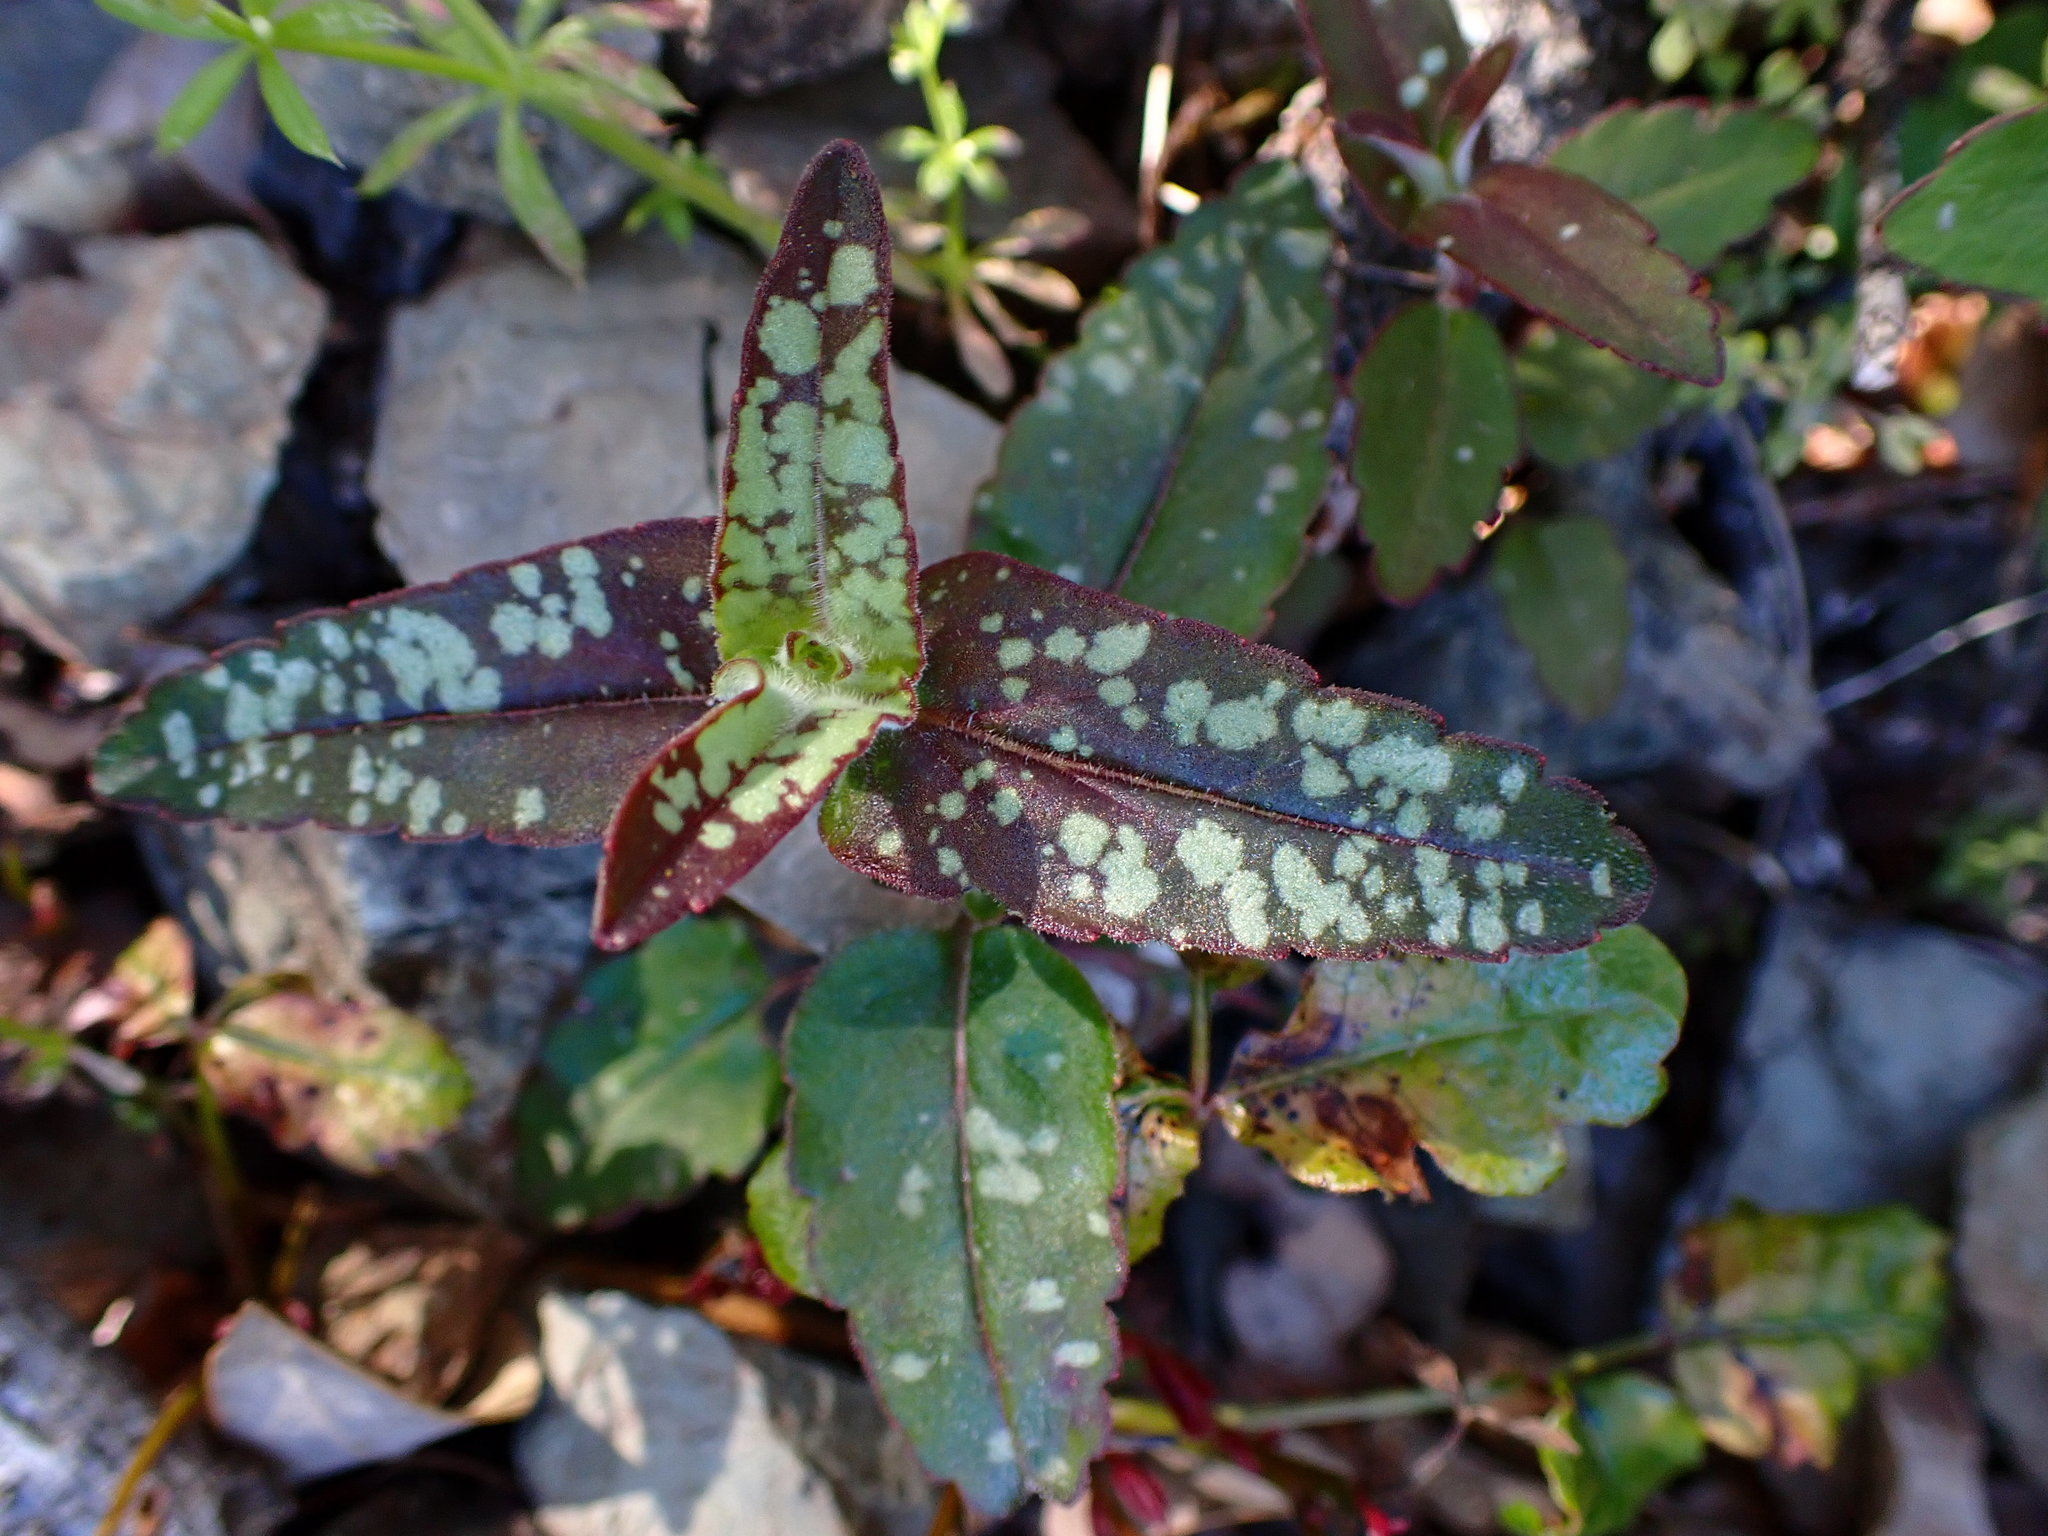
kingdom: Plantae
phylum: Tracheophyta
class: Magnoliopsida
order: Lamiales
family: Plantaginaceae
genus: Collinsia
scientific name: Collinsia tinctoria
